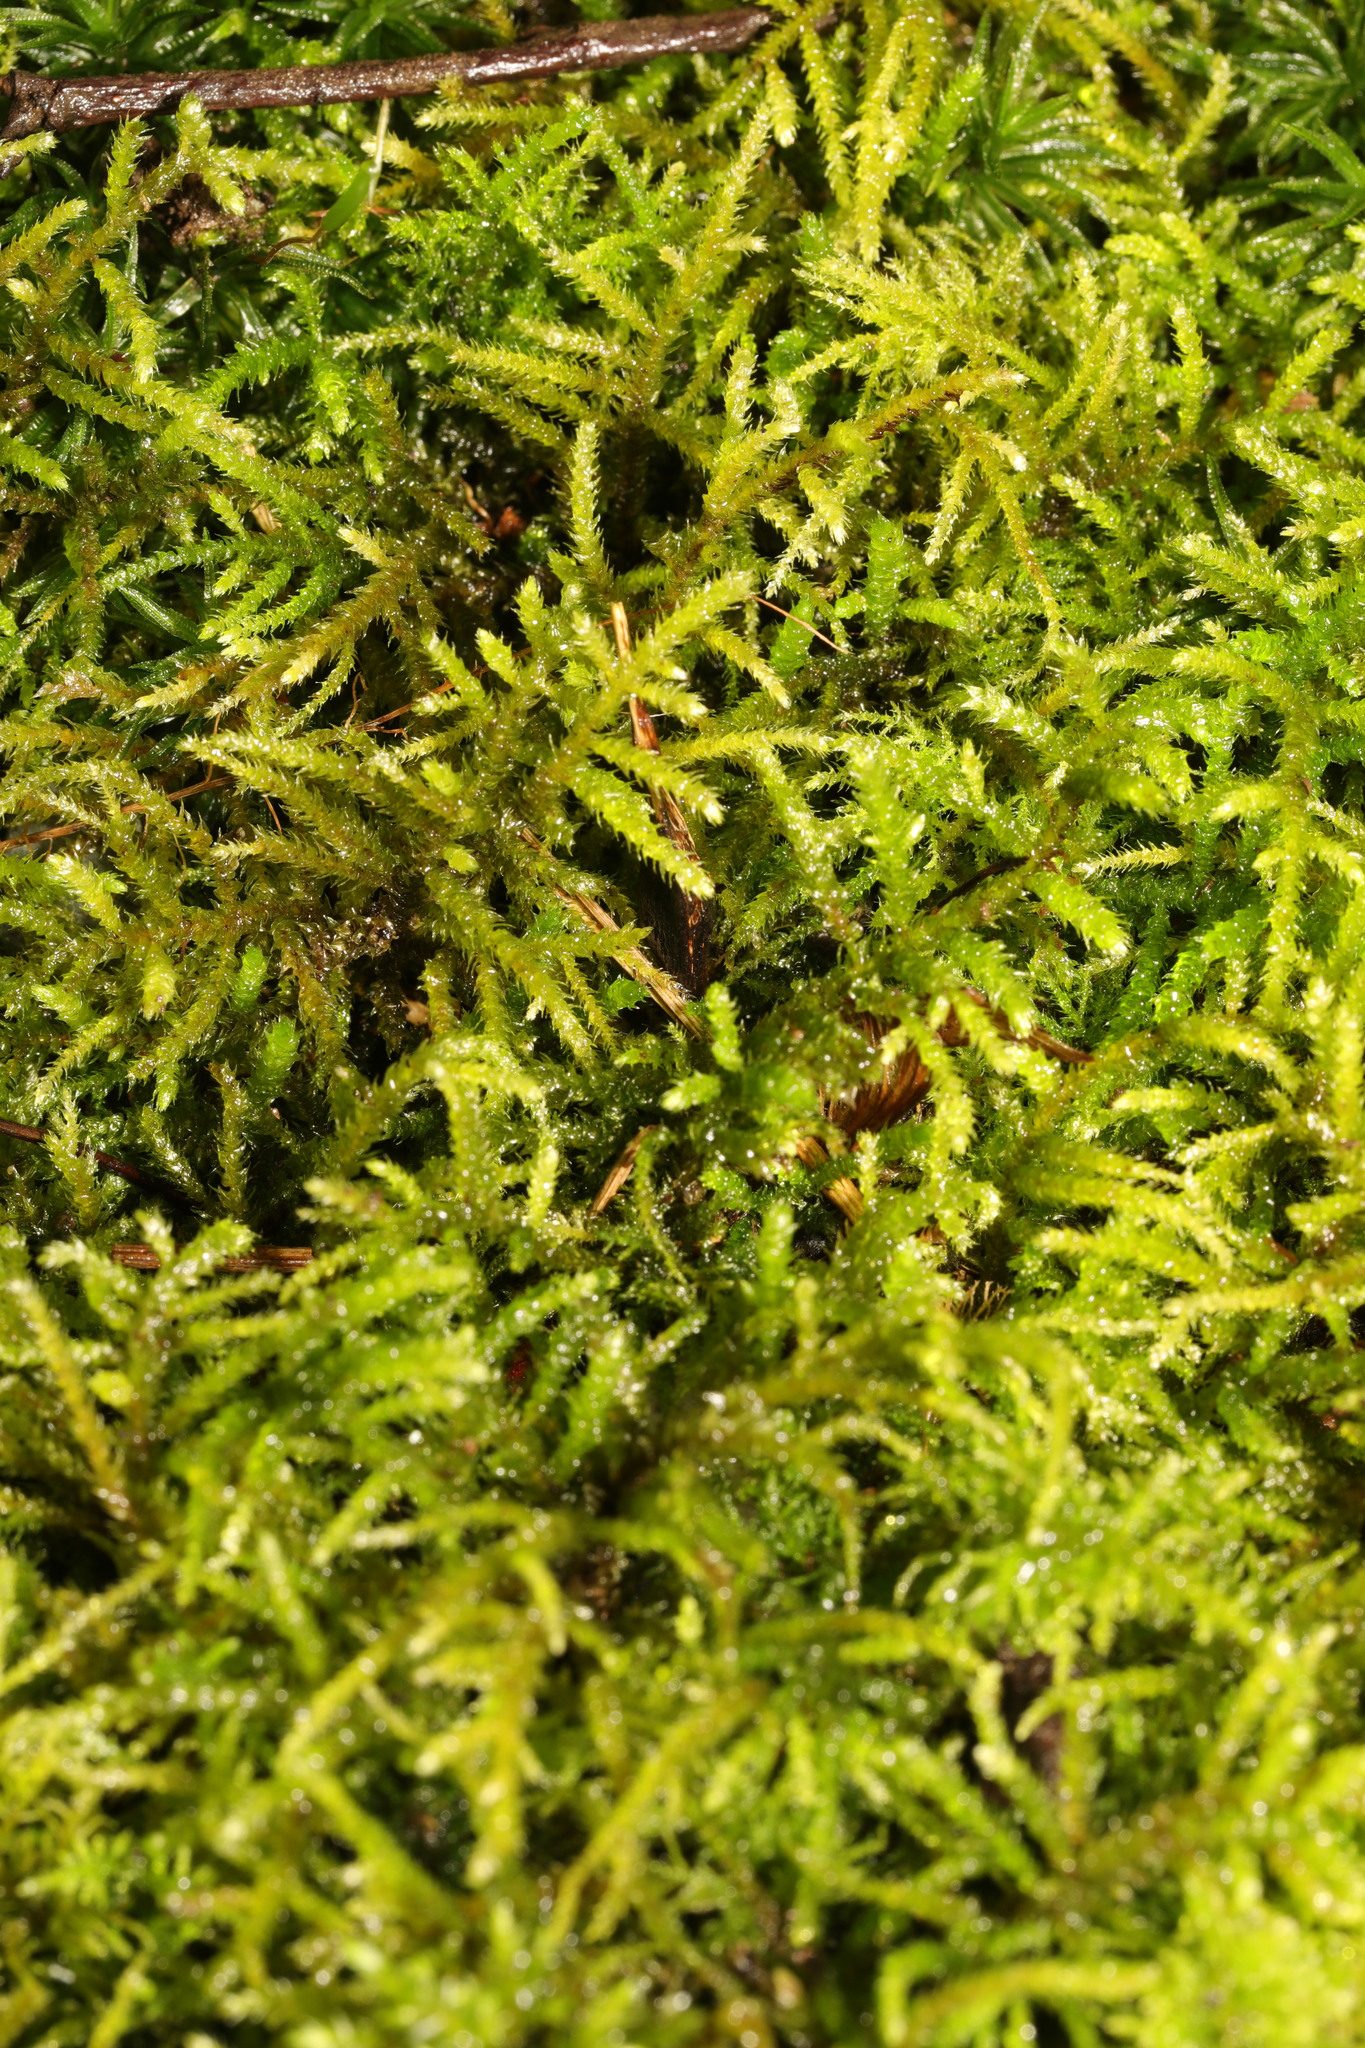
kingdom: Plantae
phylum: Bryophyta
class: Bryopsida
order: Hypnales
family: Brachytheciaceae
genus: Kindbergia
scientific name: Kindbergia praelonga
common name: Slender beaked moss
